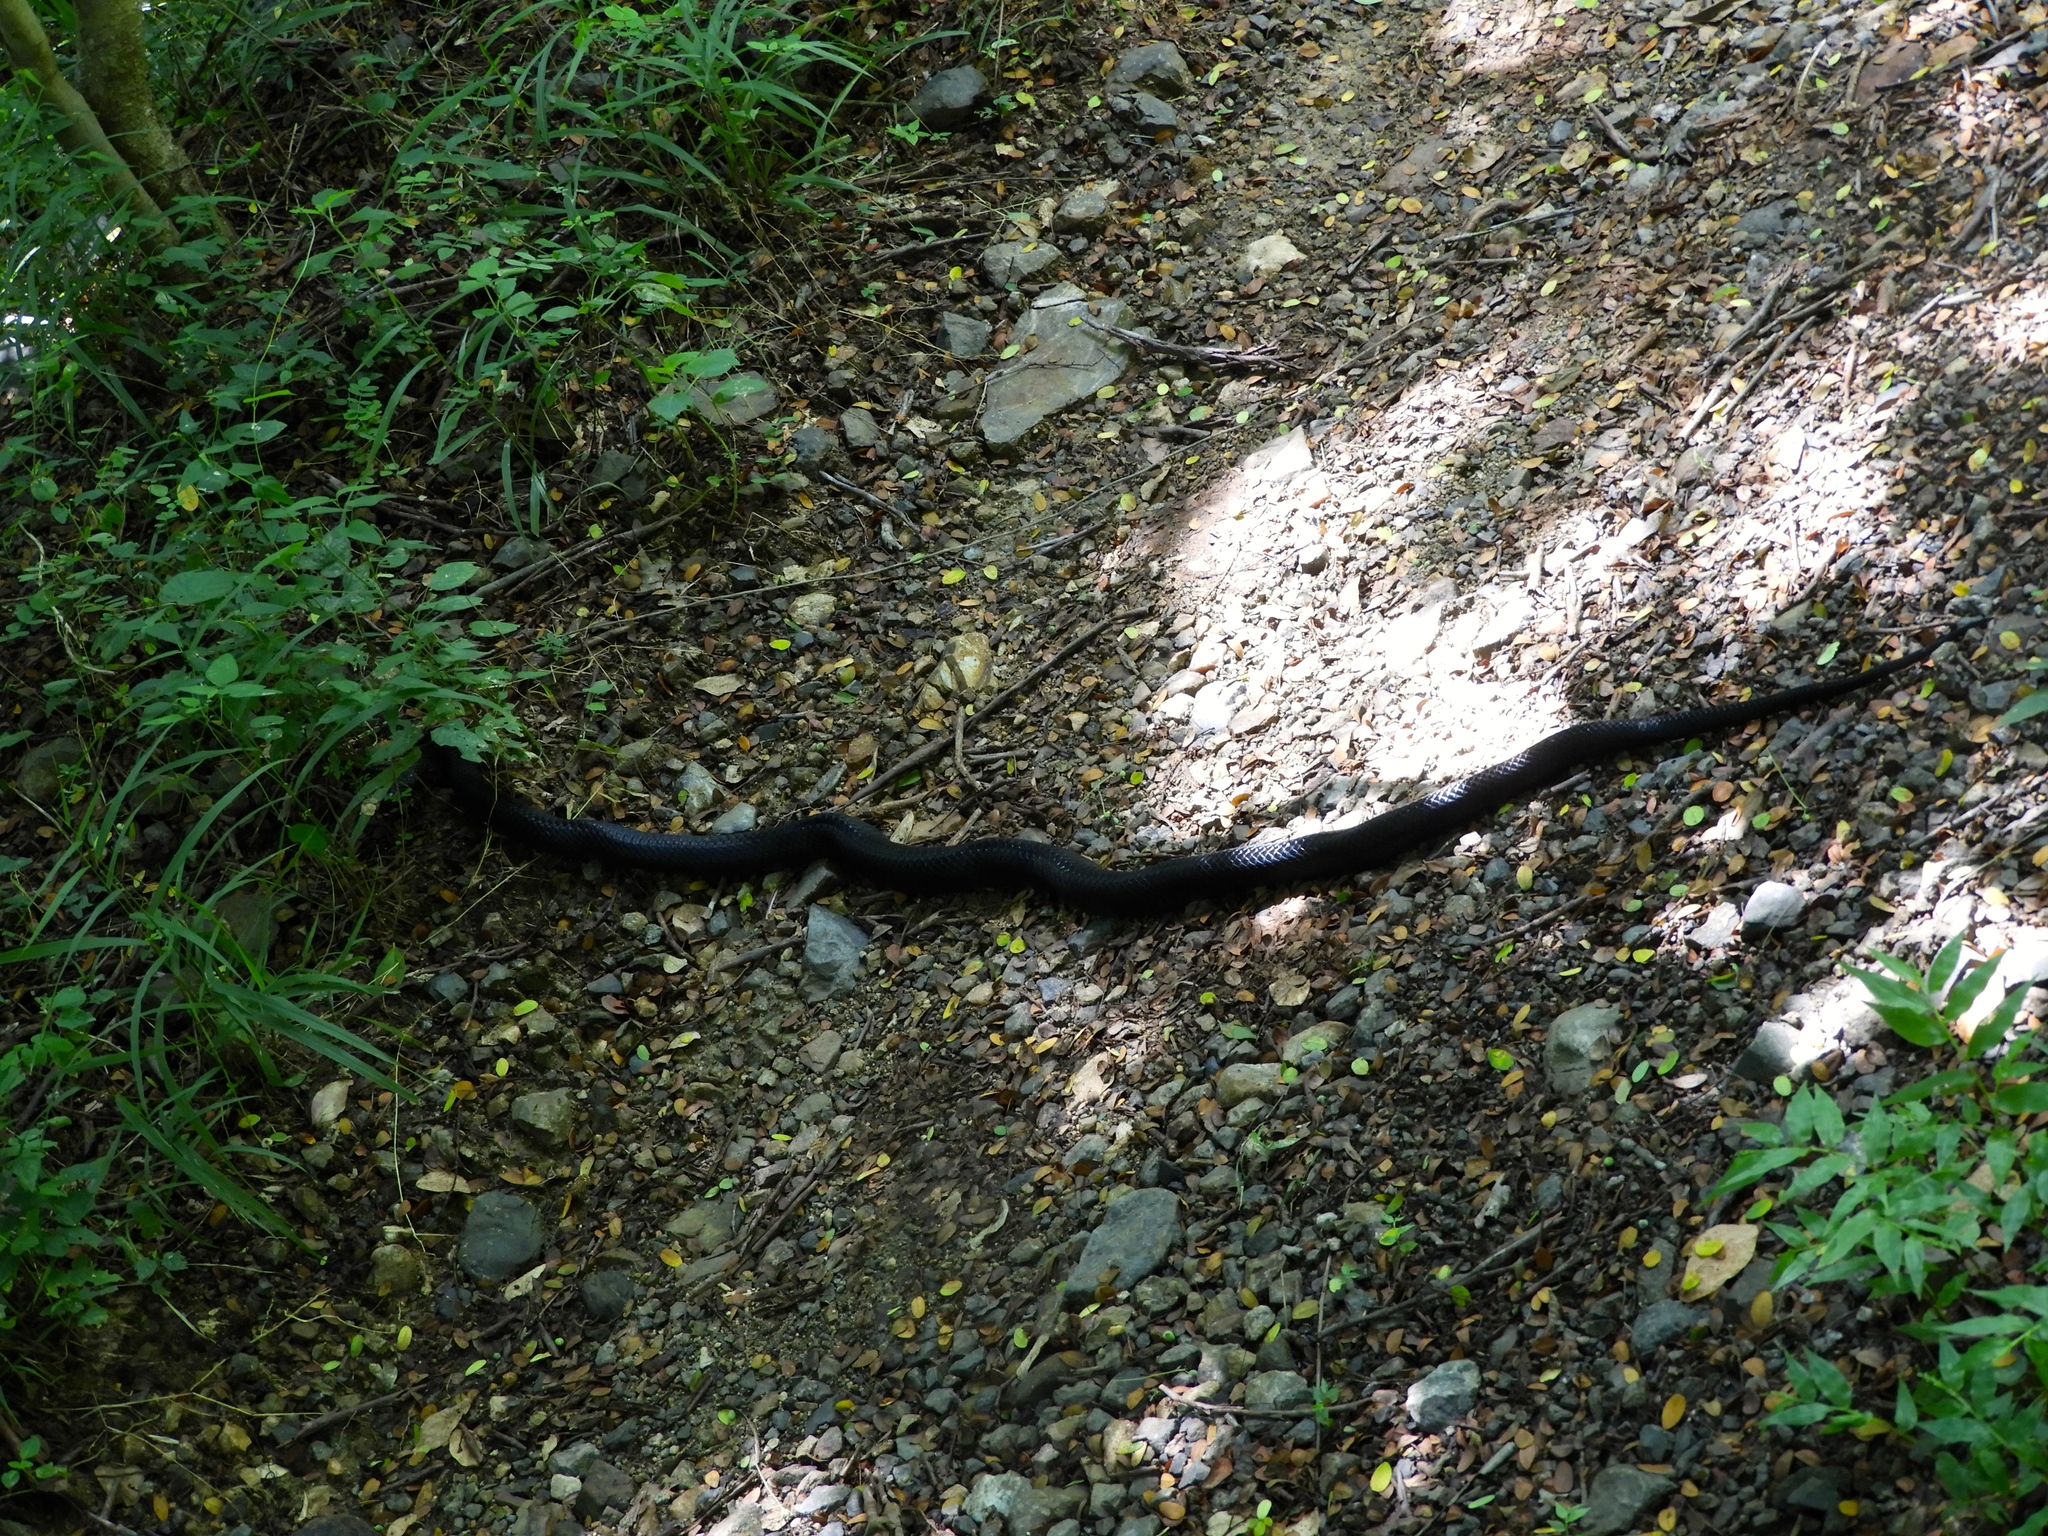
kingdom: Animalia
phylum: Chordata
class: Squamata
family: Colubridae
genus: Drymarchon
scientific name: Drymarchon melanurus
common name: Central american indigo snake
